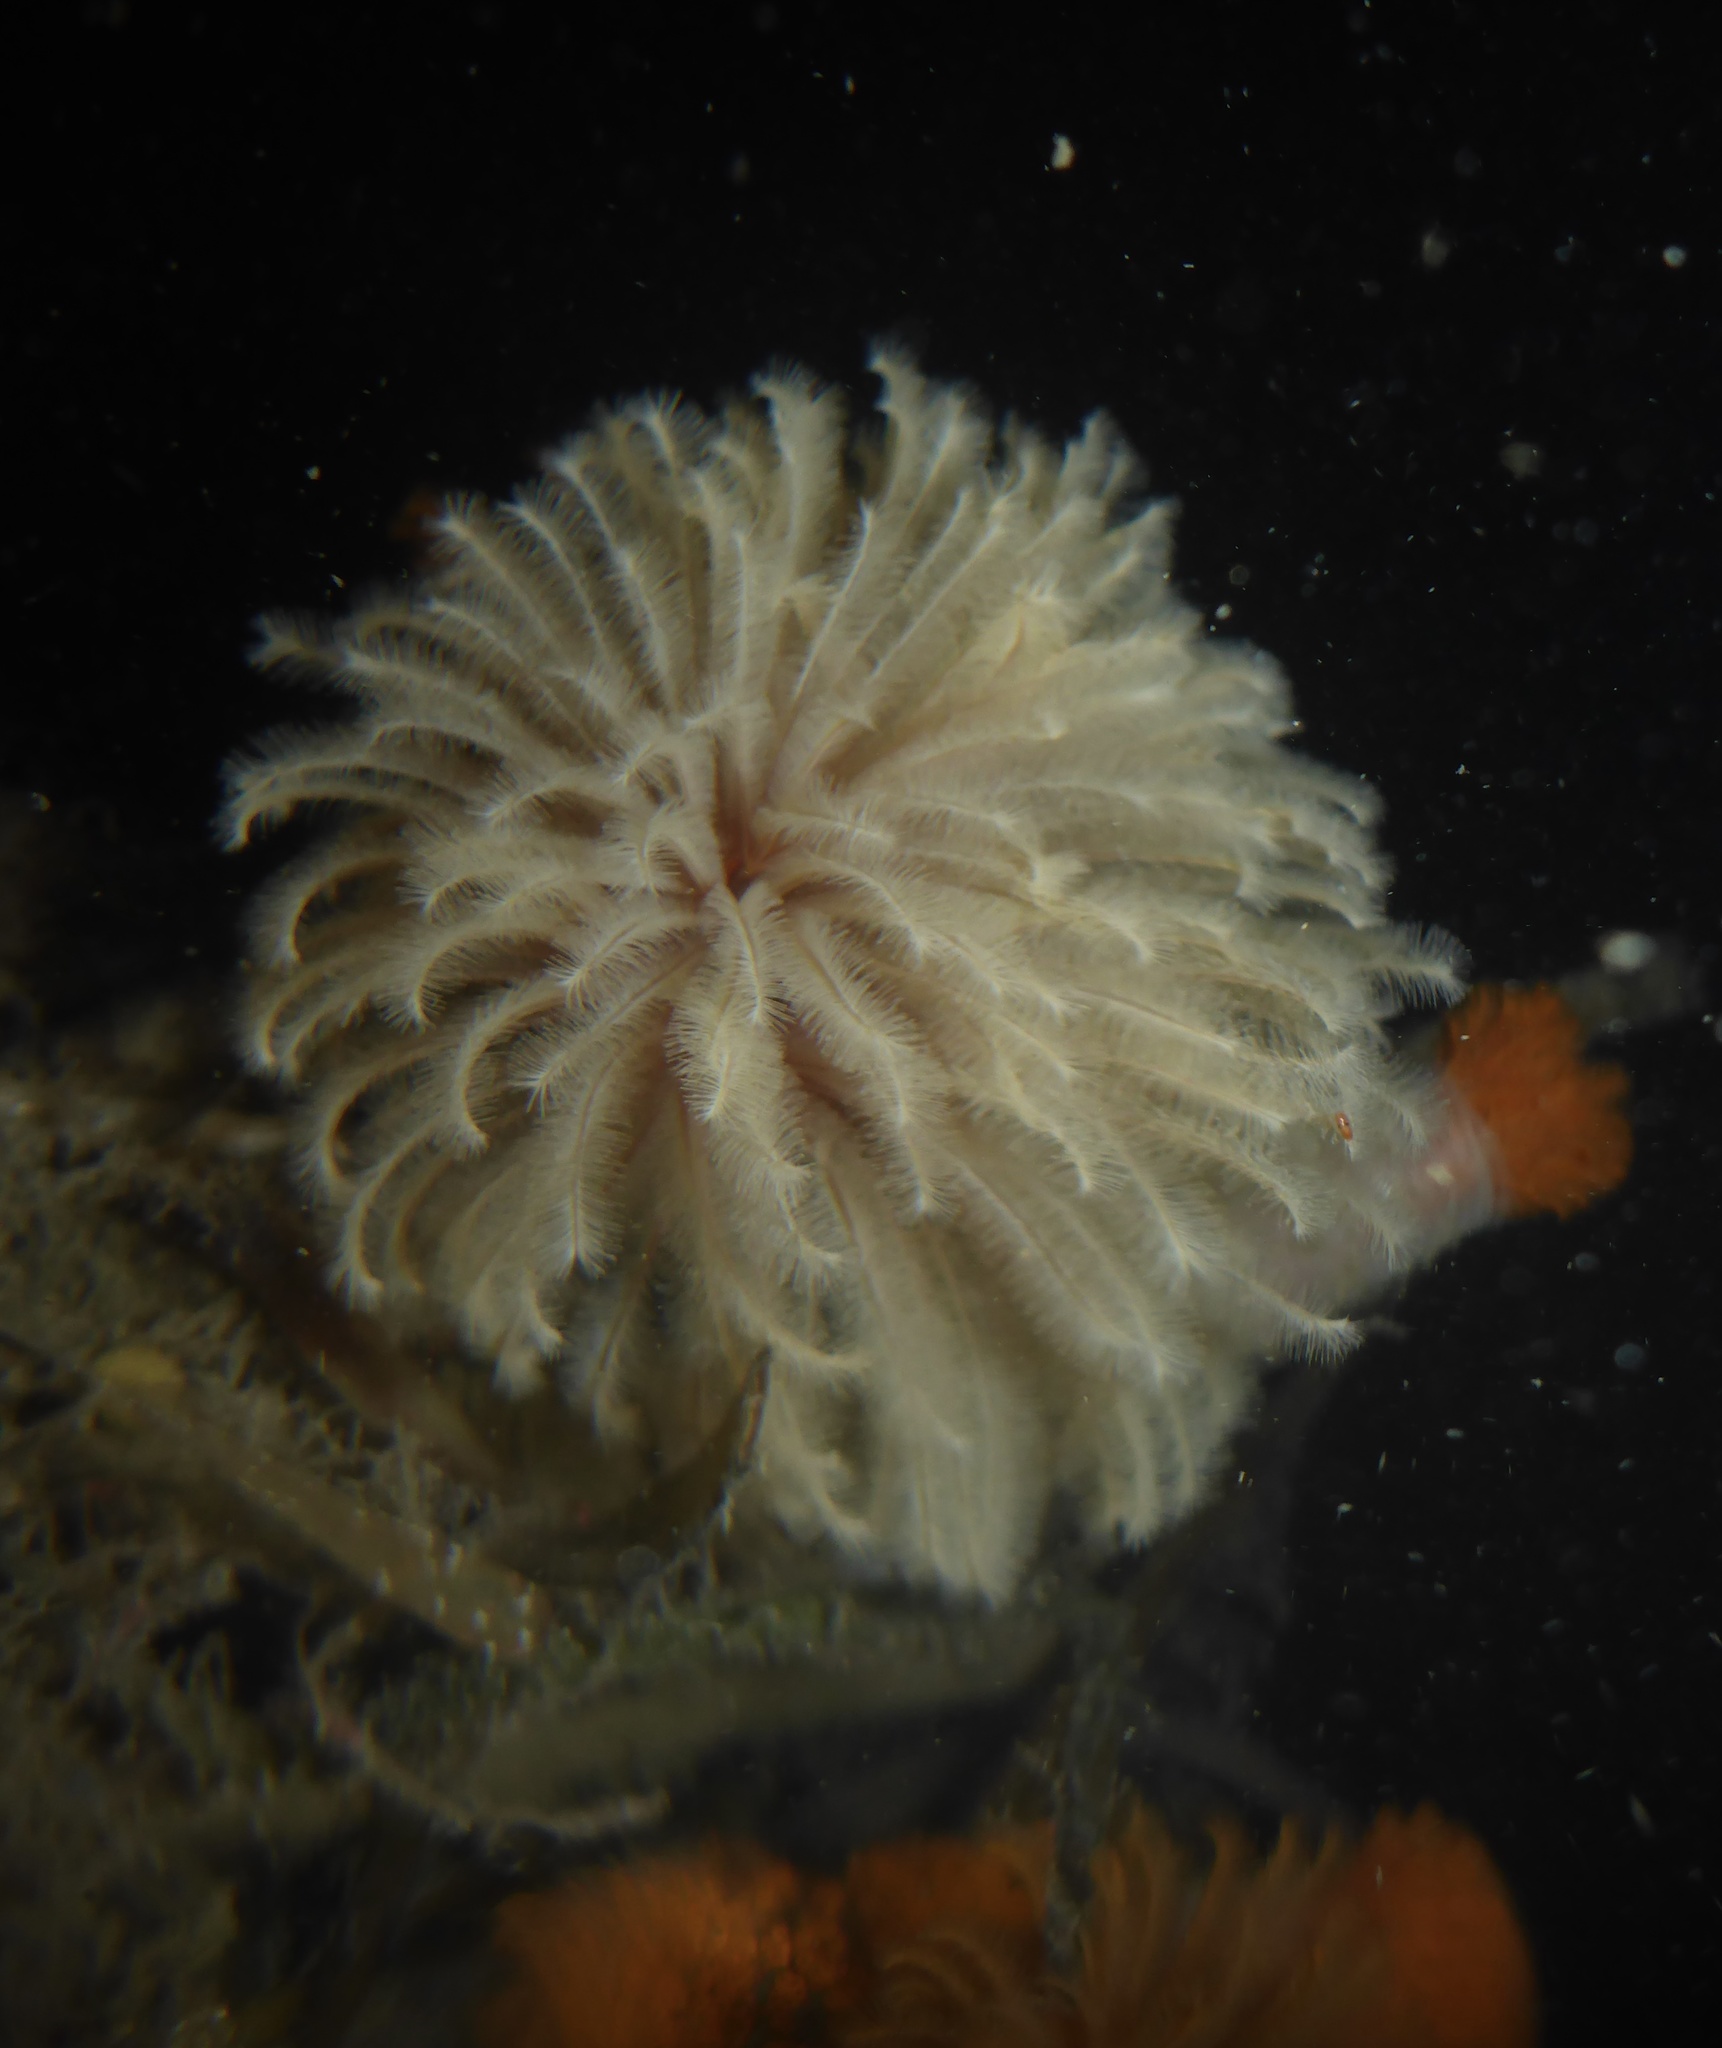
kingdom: Animalia
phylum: Annelida
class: Polychaeta
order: Sabellida
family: Sabellidae
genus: Eudistylia
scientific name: Eudistylia polymorpha
